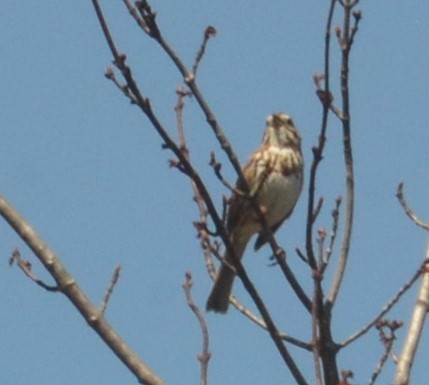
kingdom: Animalia
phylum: Chordata
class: Aves
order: Passeriformes
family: Passerellidae
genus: Melospiza
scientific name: Melospiza melodia
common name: Song sparrow
